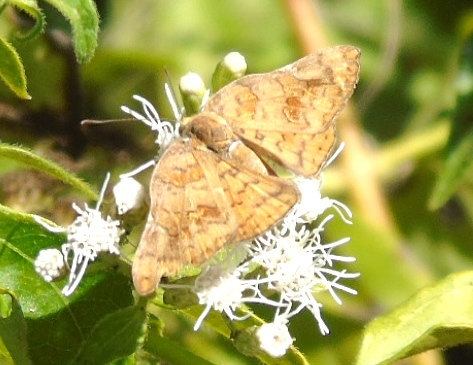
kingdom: Animalia
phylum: Arthropoda
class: Insecta
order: Lepidoptera
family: Riodinidae
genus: Curvie
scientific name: Curvie emesia
